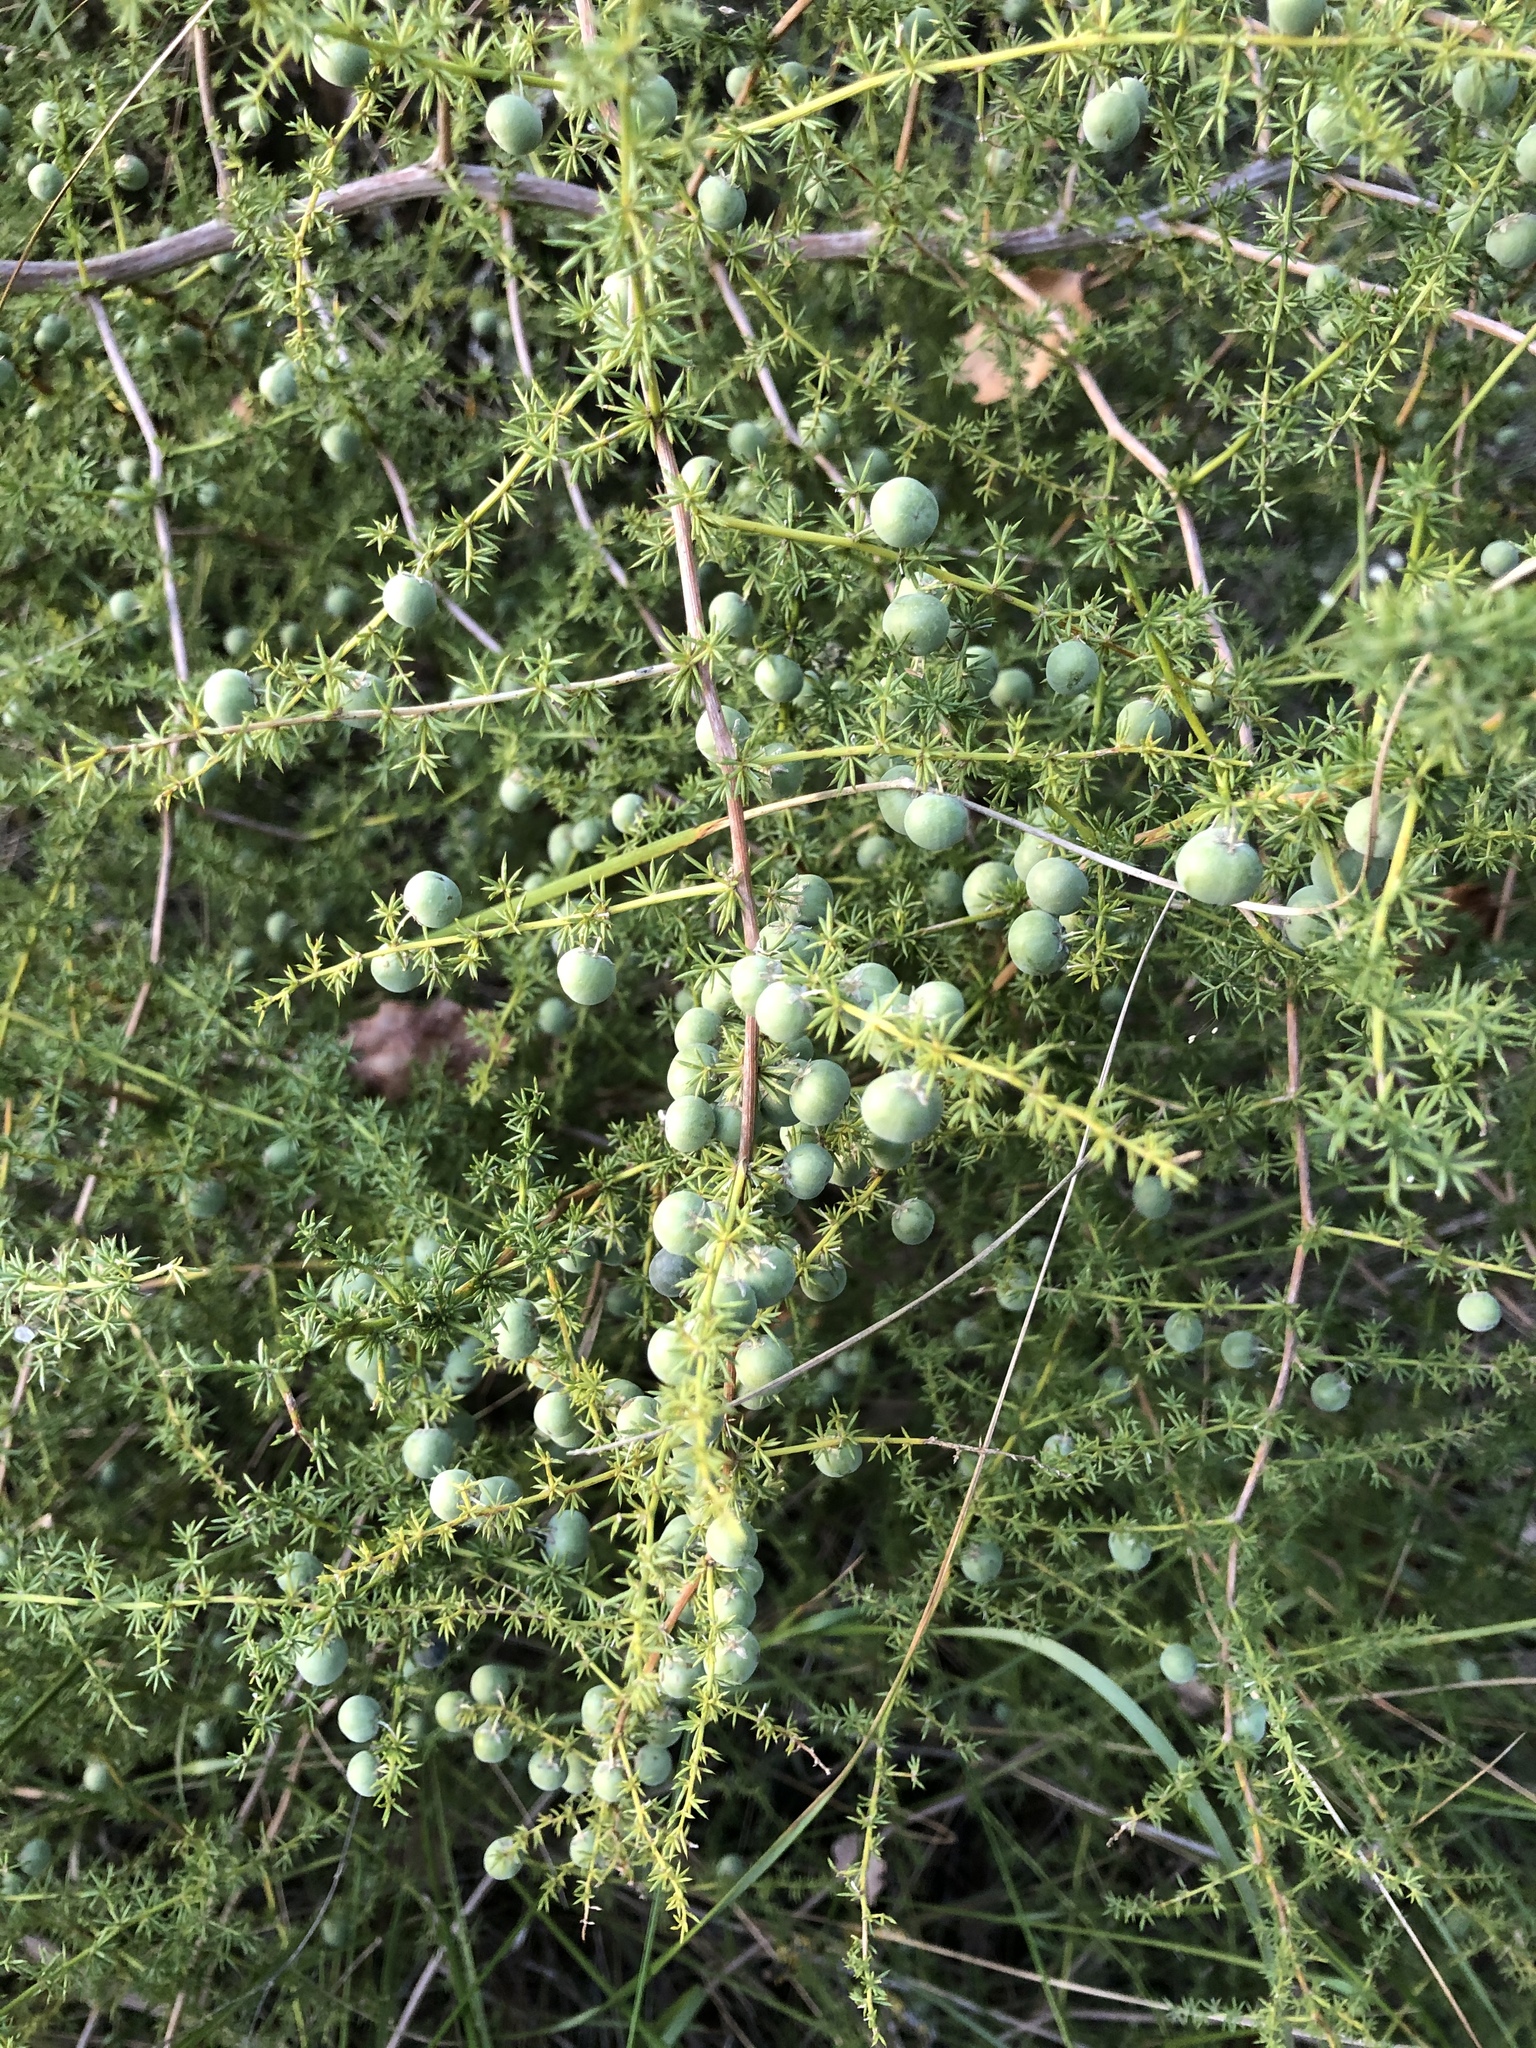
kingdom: Plantae
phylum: Tracheophyta
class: Liliopsida
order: Asparagales
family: Asparagaceae
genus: Asparagus
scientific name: Asparagus acutifolius
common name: Wild asparagus
